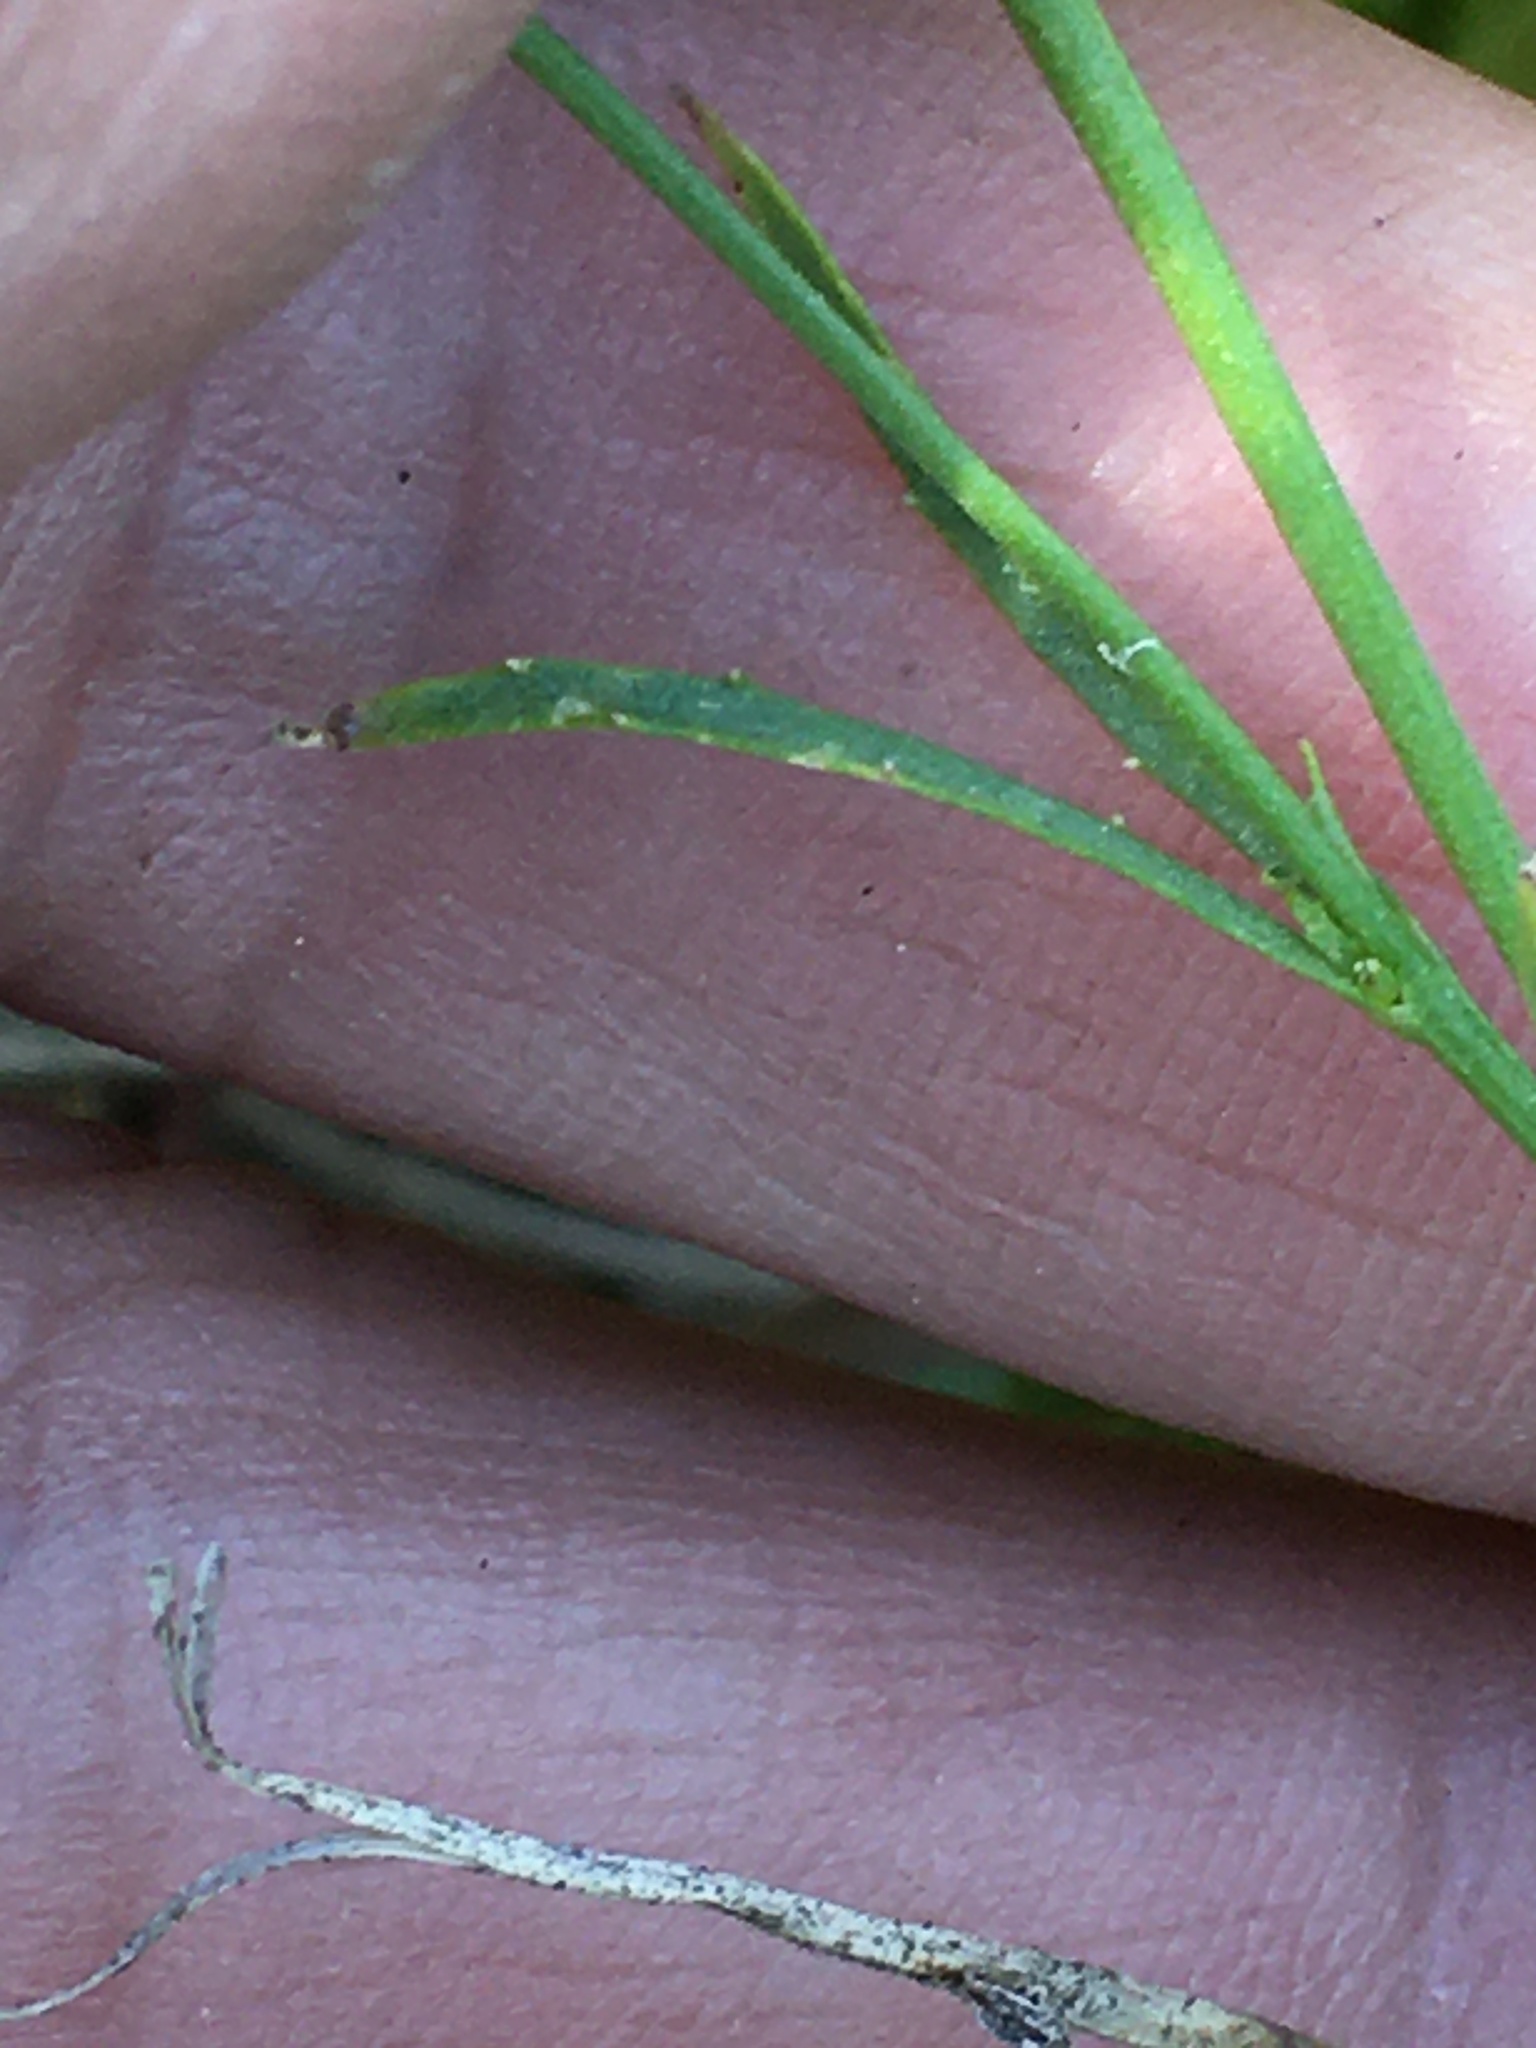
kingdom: Plantae
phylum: Tracheophyta
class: Magnoliopsida
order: Asterales
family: Campanulaceae
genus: Lobelia
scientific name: Lobelia nuttallii
